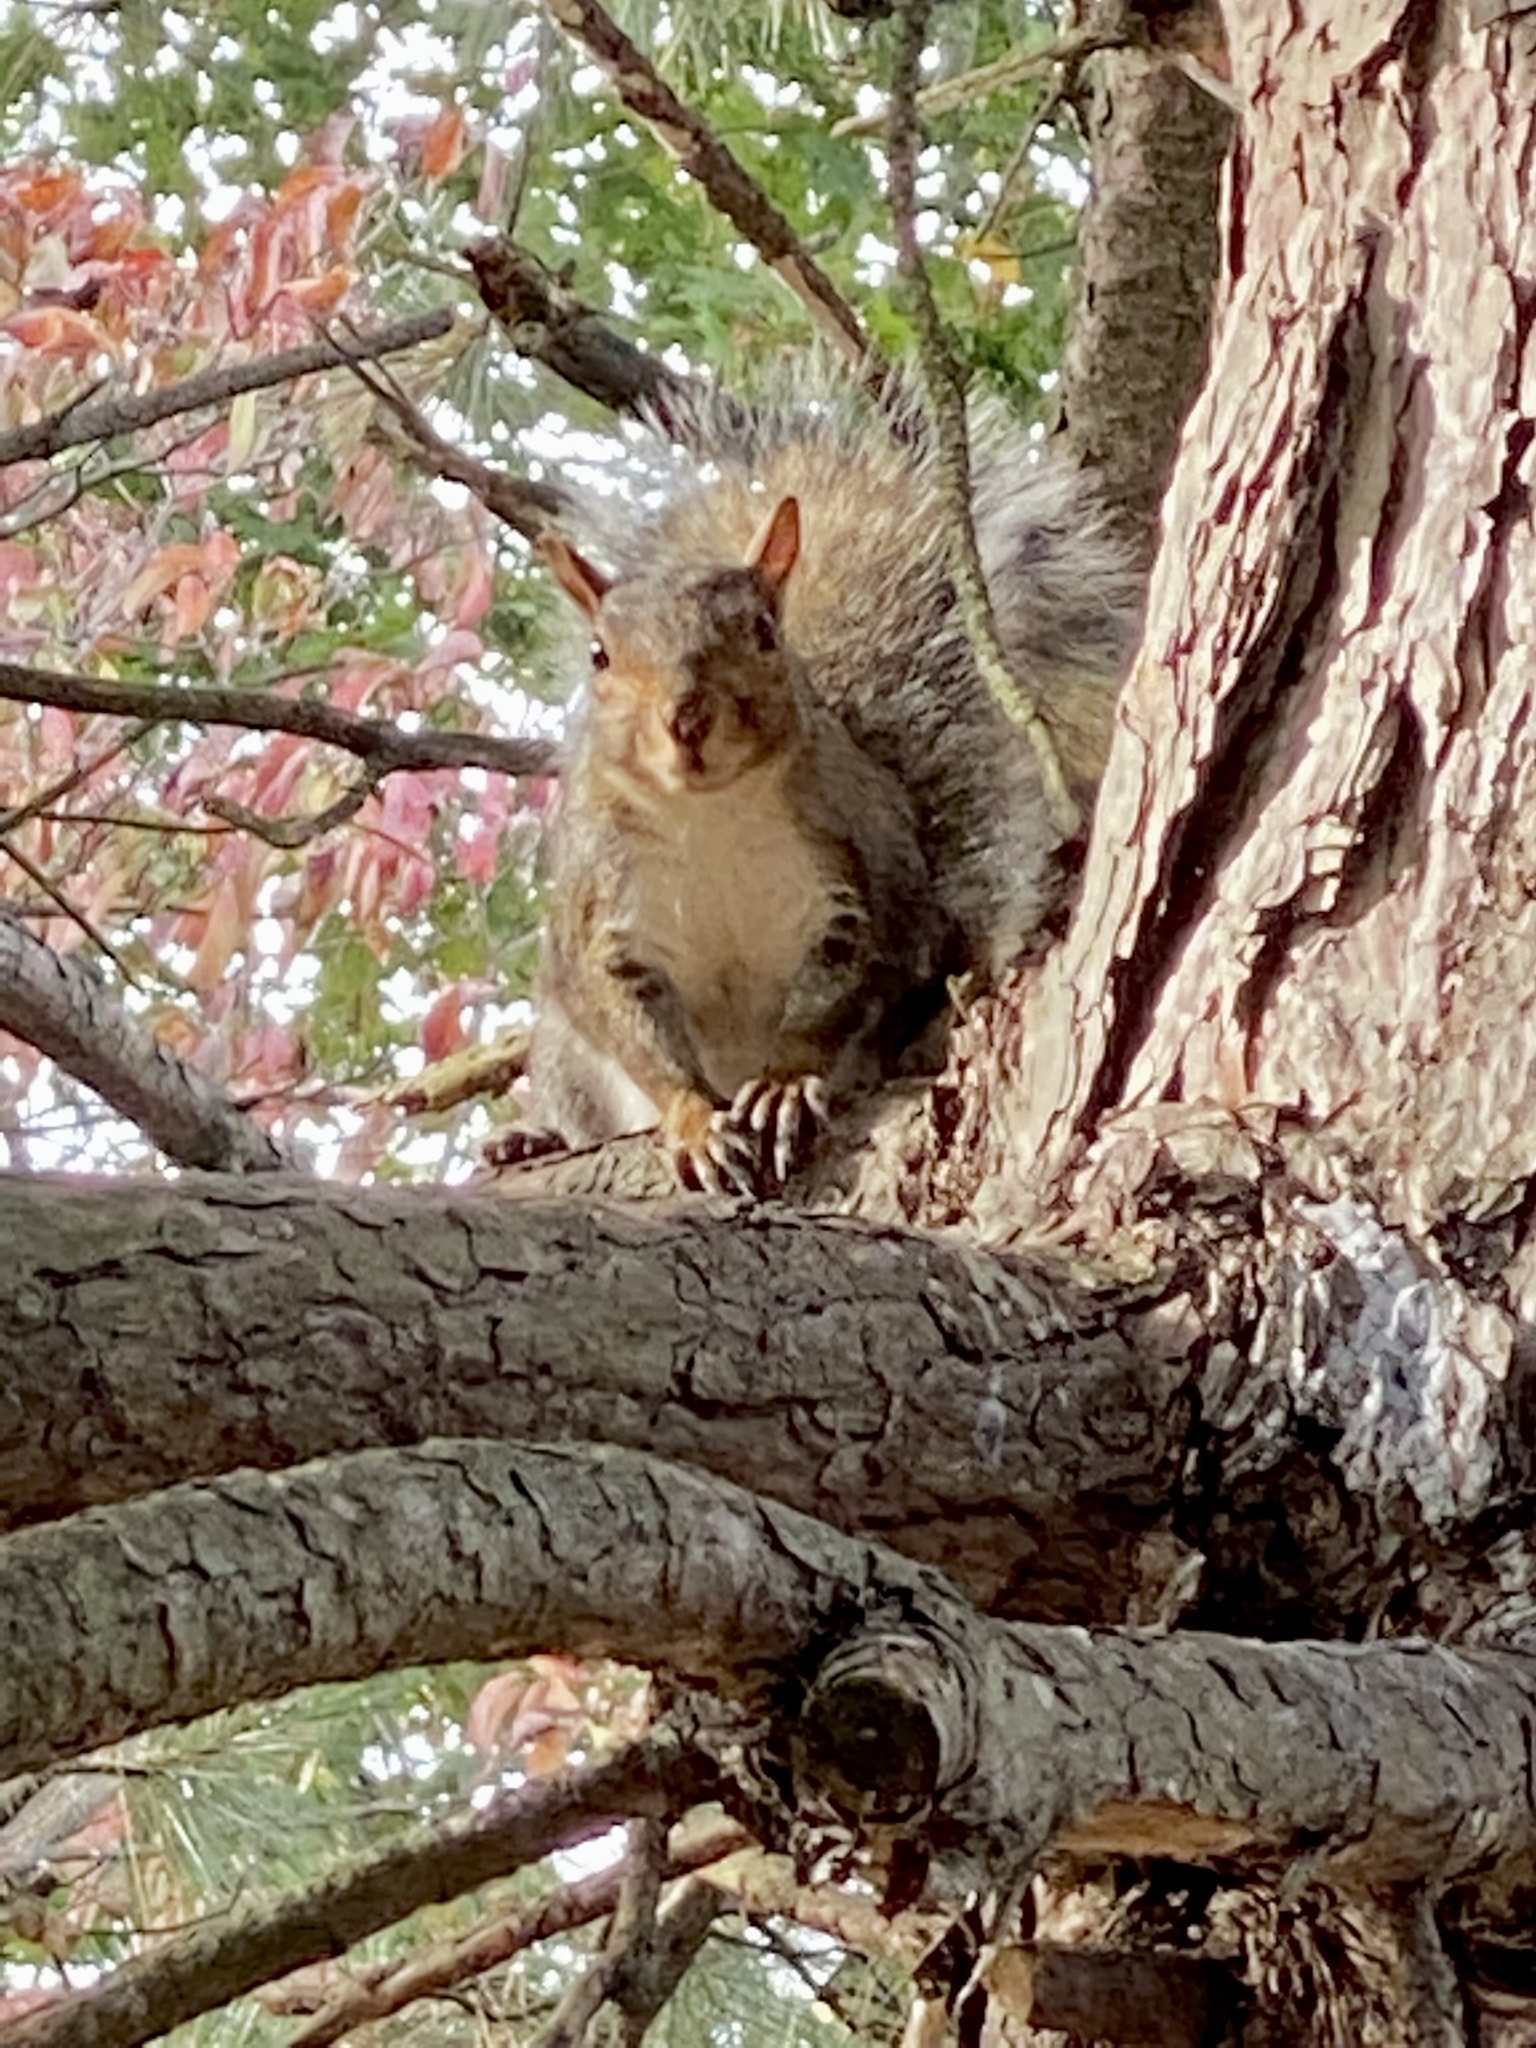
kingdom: Animalia
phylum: Chordata
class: Mammalia
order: Rodentia
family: Sciuridae
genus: Sciurus
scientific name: Sciurus carolinensis
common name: Eastern gray squirrel
